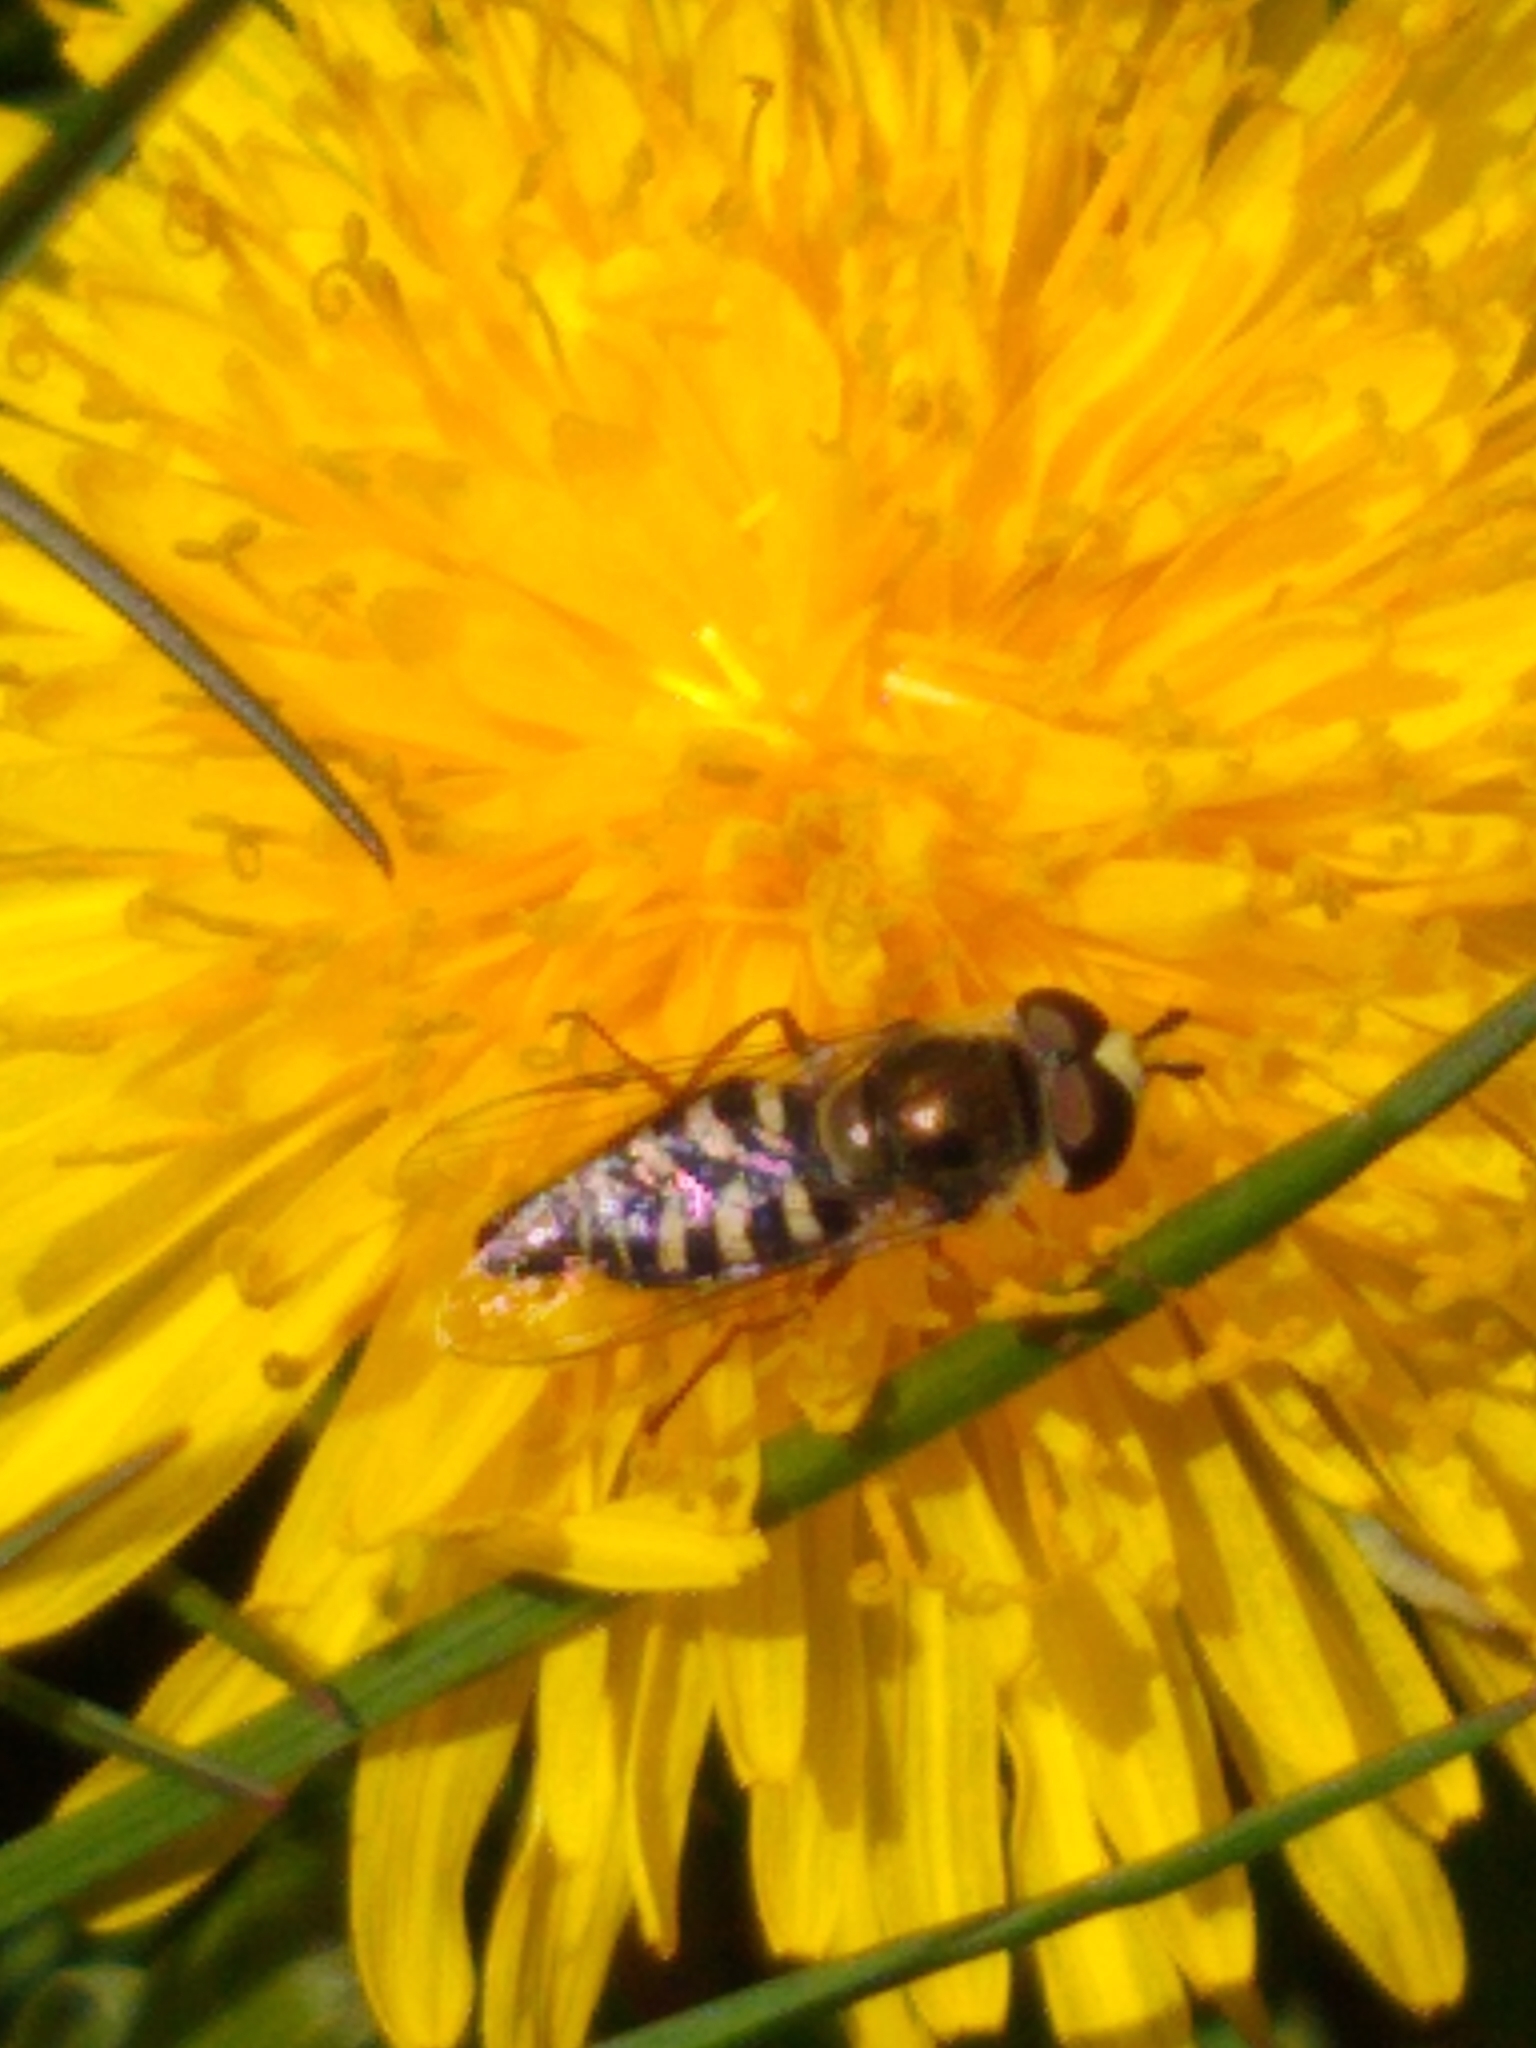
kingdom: Animalia
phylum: Arthropoda
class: Insecta
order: Diptera
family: Syrphidae
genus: Eupeodes
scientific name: Eupeodes volucris
